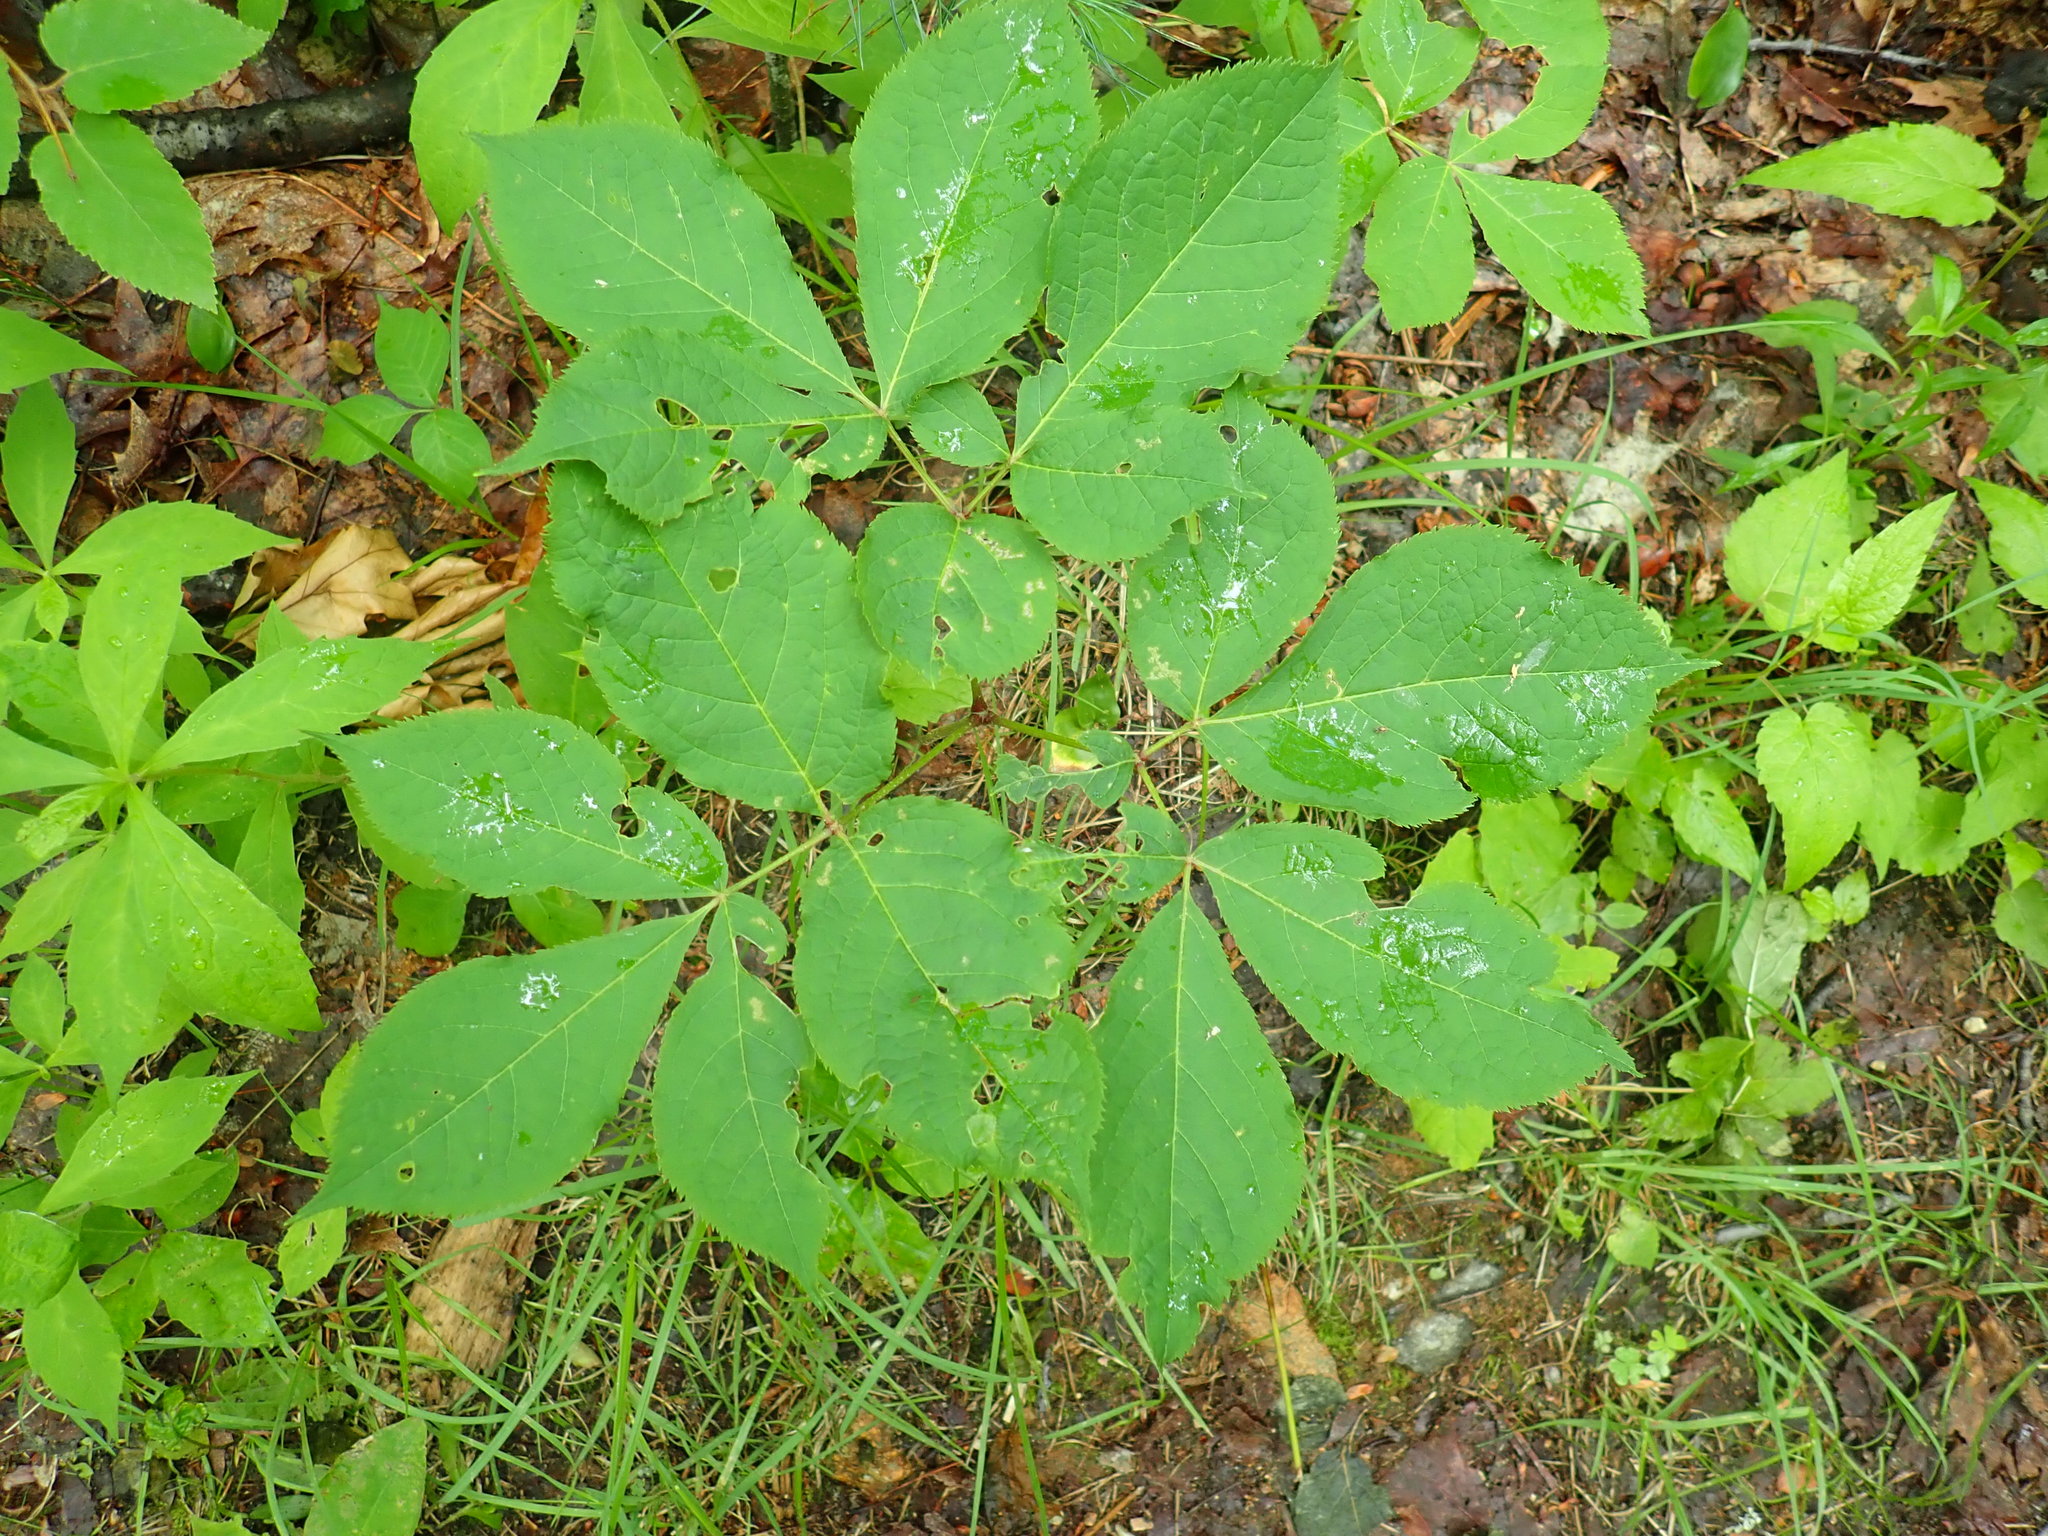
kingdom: Plantae
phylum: Tracheophyta
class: Magnoliopsida
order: Apiales
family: Araliaceae
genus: Aralia
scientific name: Aralia nudicaulis
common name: Wild sarsaparilla
